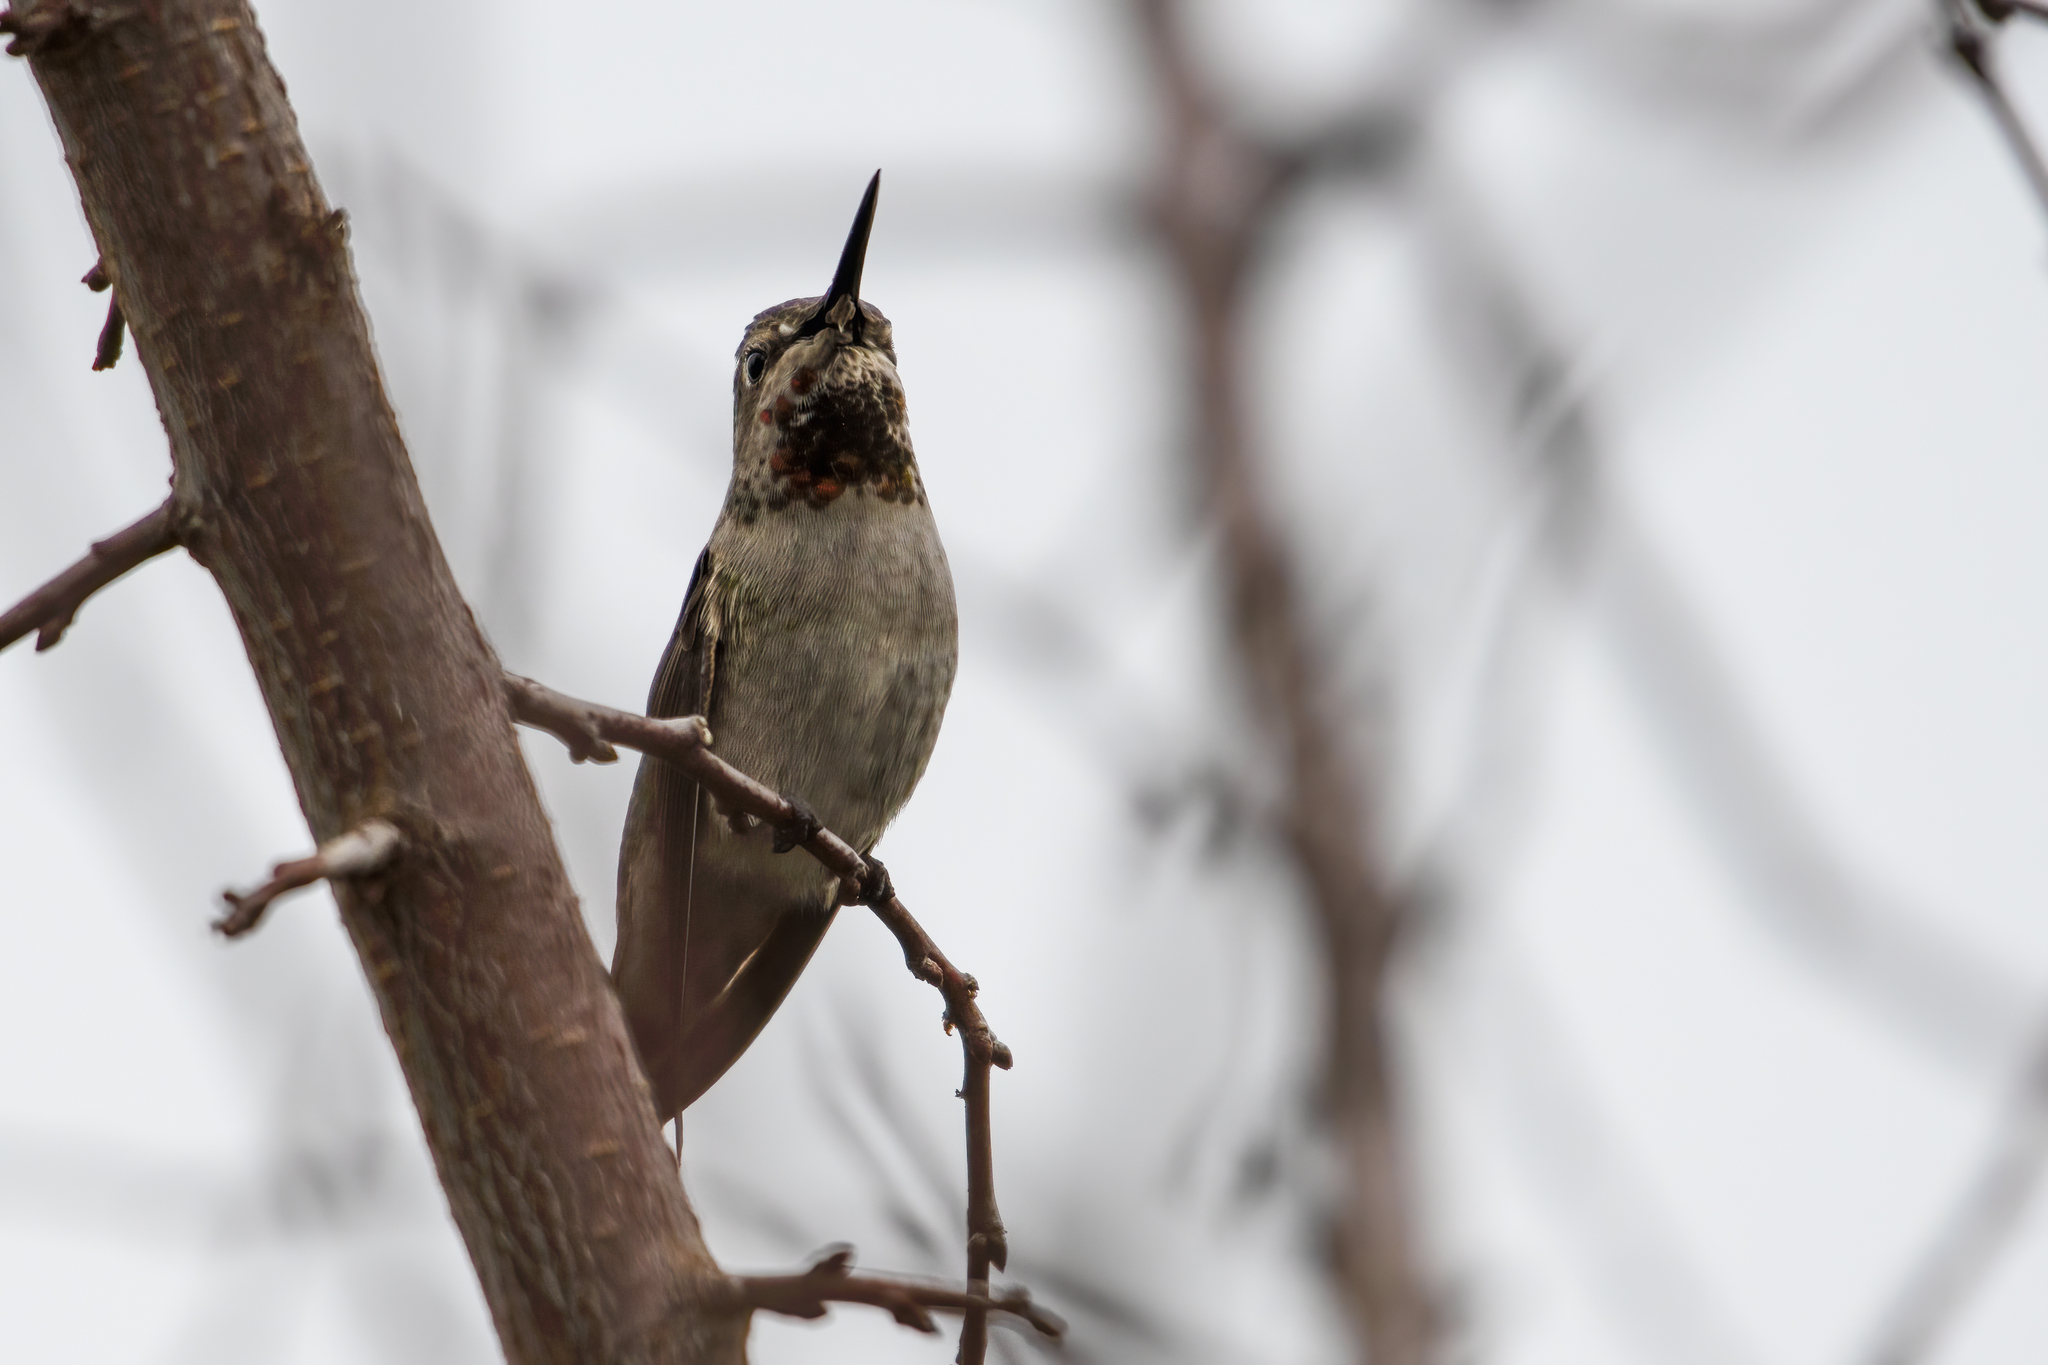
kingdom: Animalia
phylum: Chordata
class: Aves
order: Apodiformes
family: Trochilidae
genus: Calypte
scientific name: Calypte anna
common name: Anna's hummingbird
